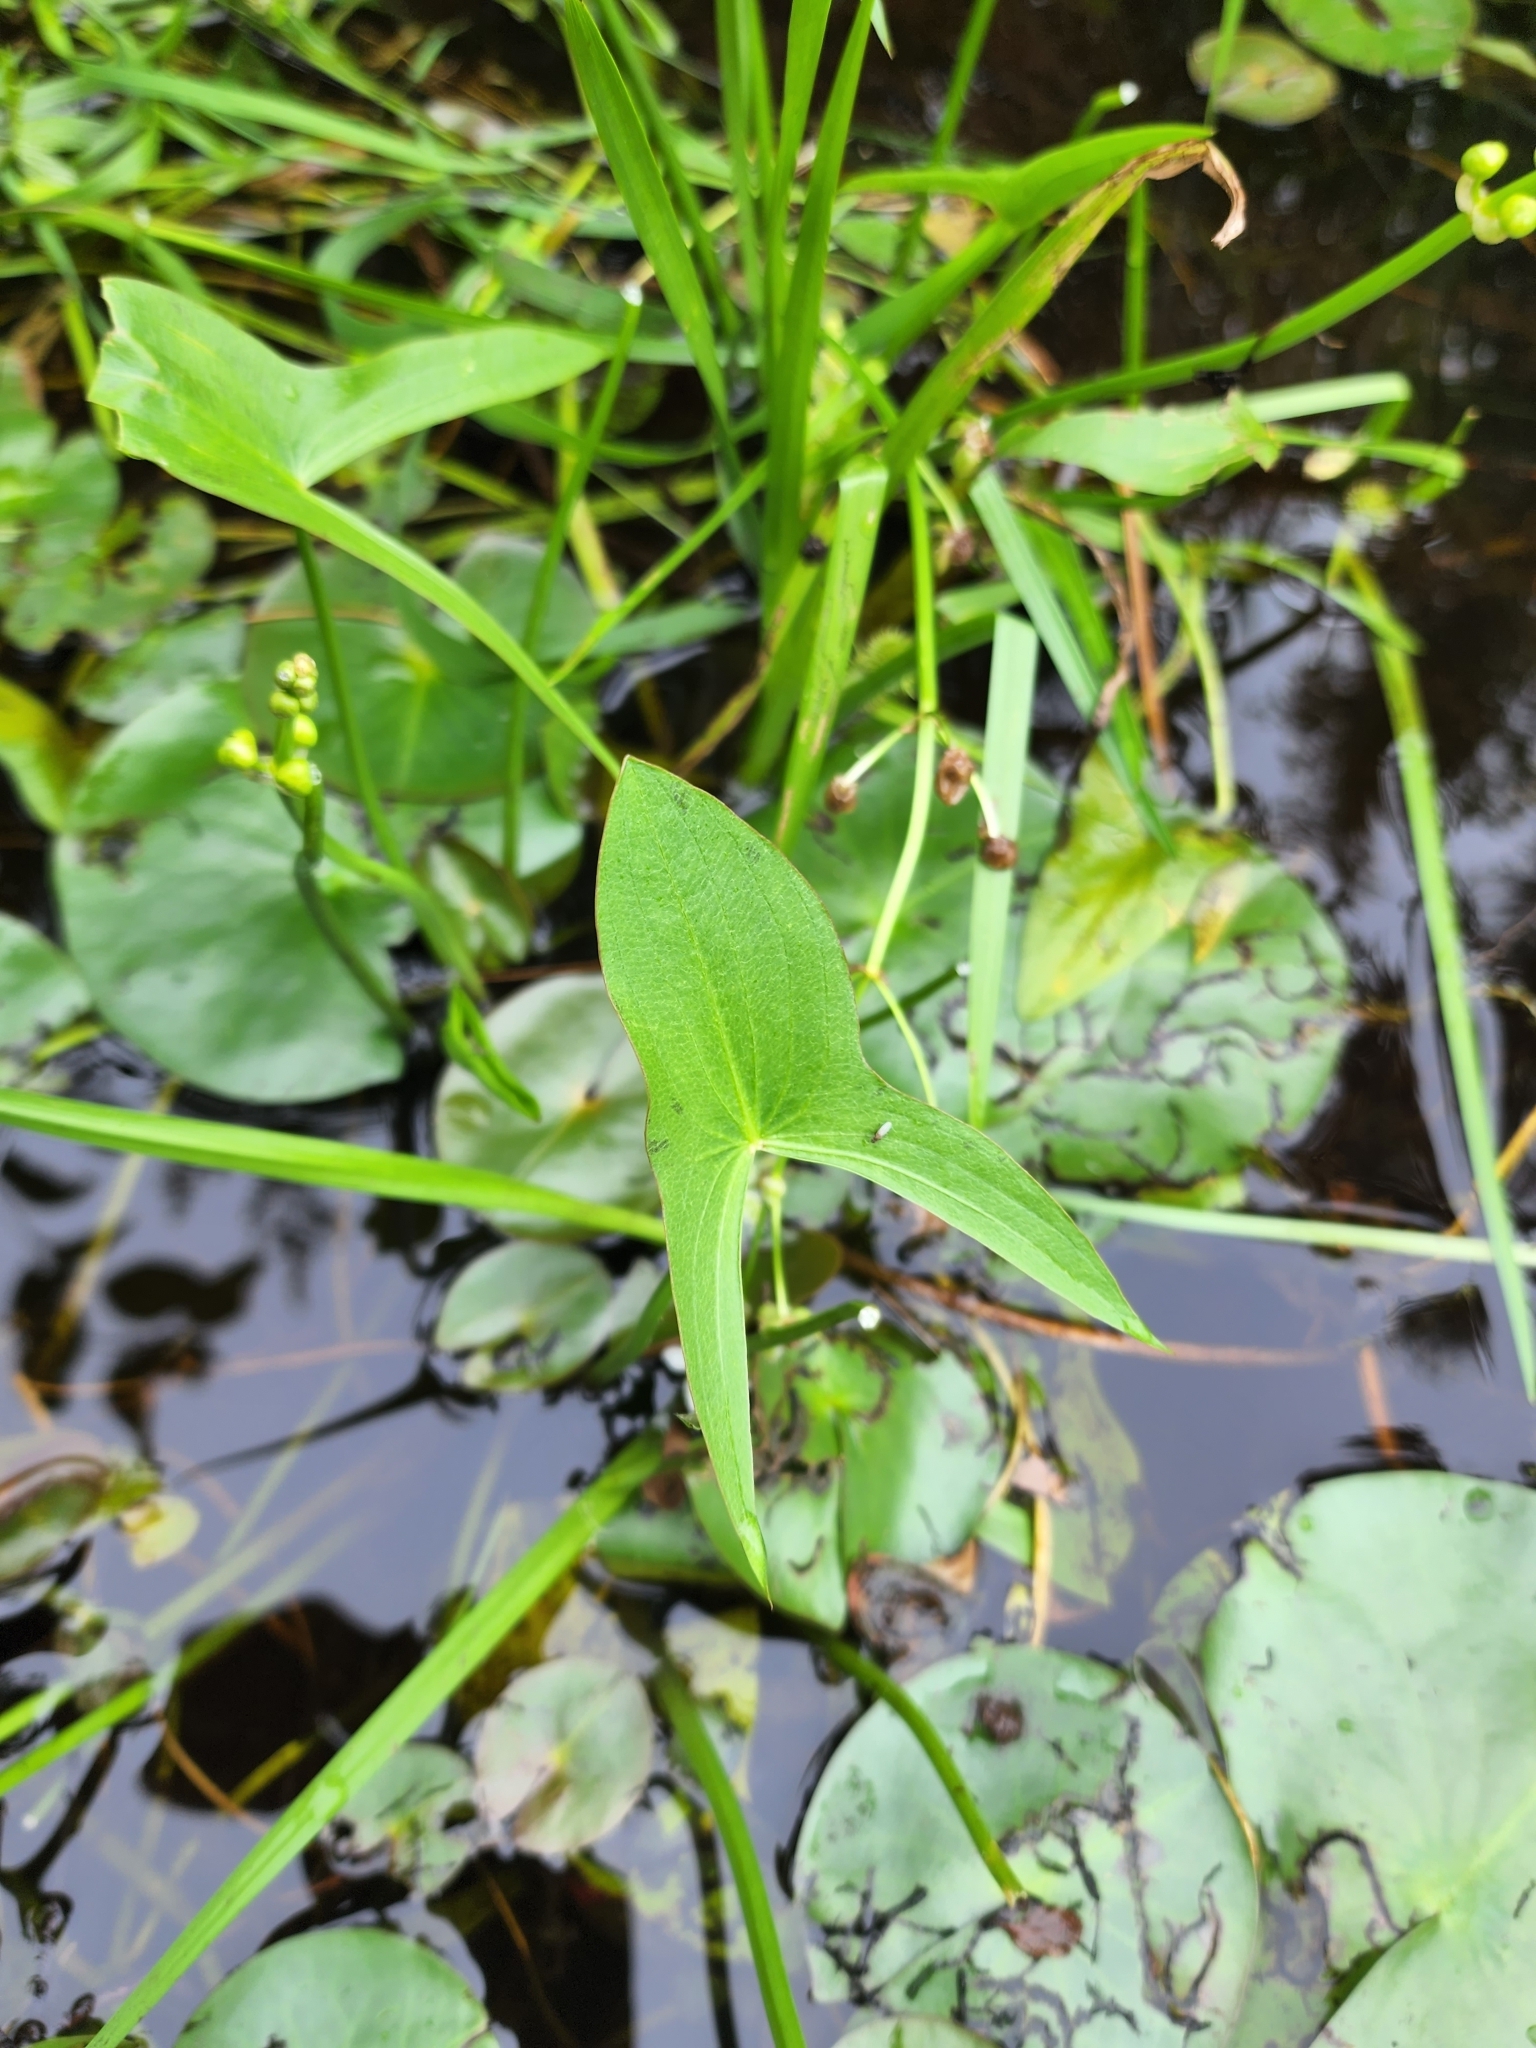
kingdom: Plantae
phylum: Tracheophyta
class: Liliopsida
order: Alismatales
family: Alismataceae
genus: Sagittaria
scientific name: Sagittaria latifolia
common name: Duck-potato
